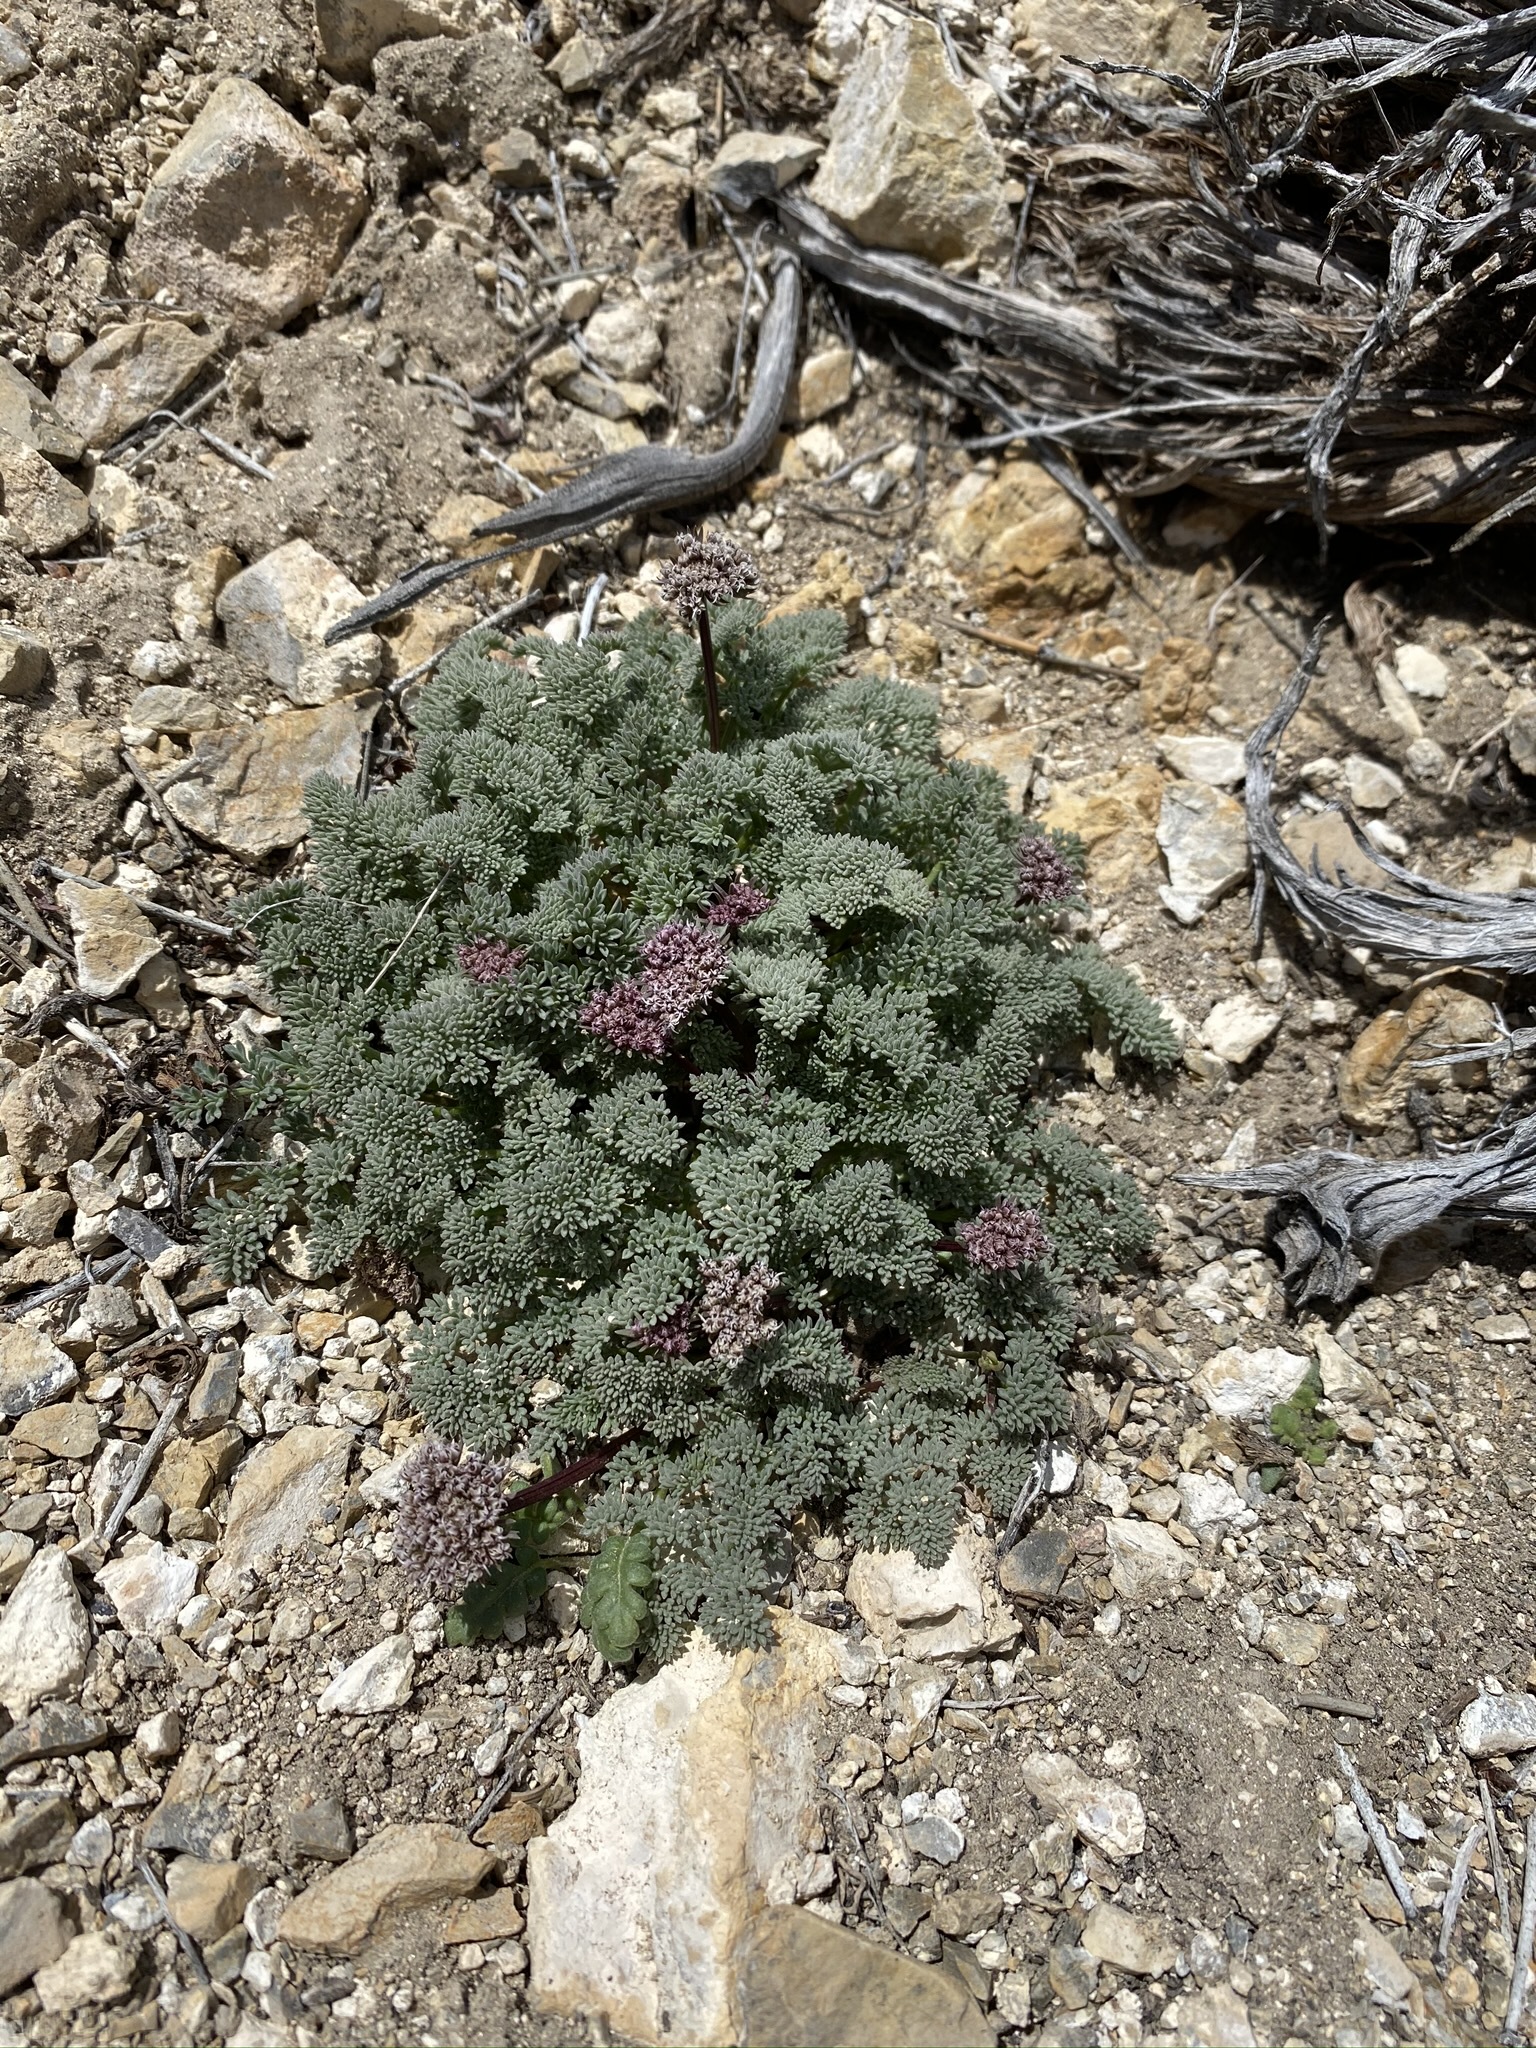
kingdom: Plantae
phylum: Tracheophyta
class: Magnoliopsida
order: Apiales
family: Apiaceae
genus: Aulospermum
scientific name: Aulospermum aboriginum
